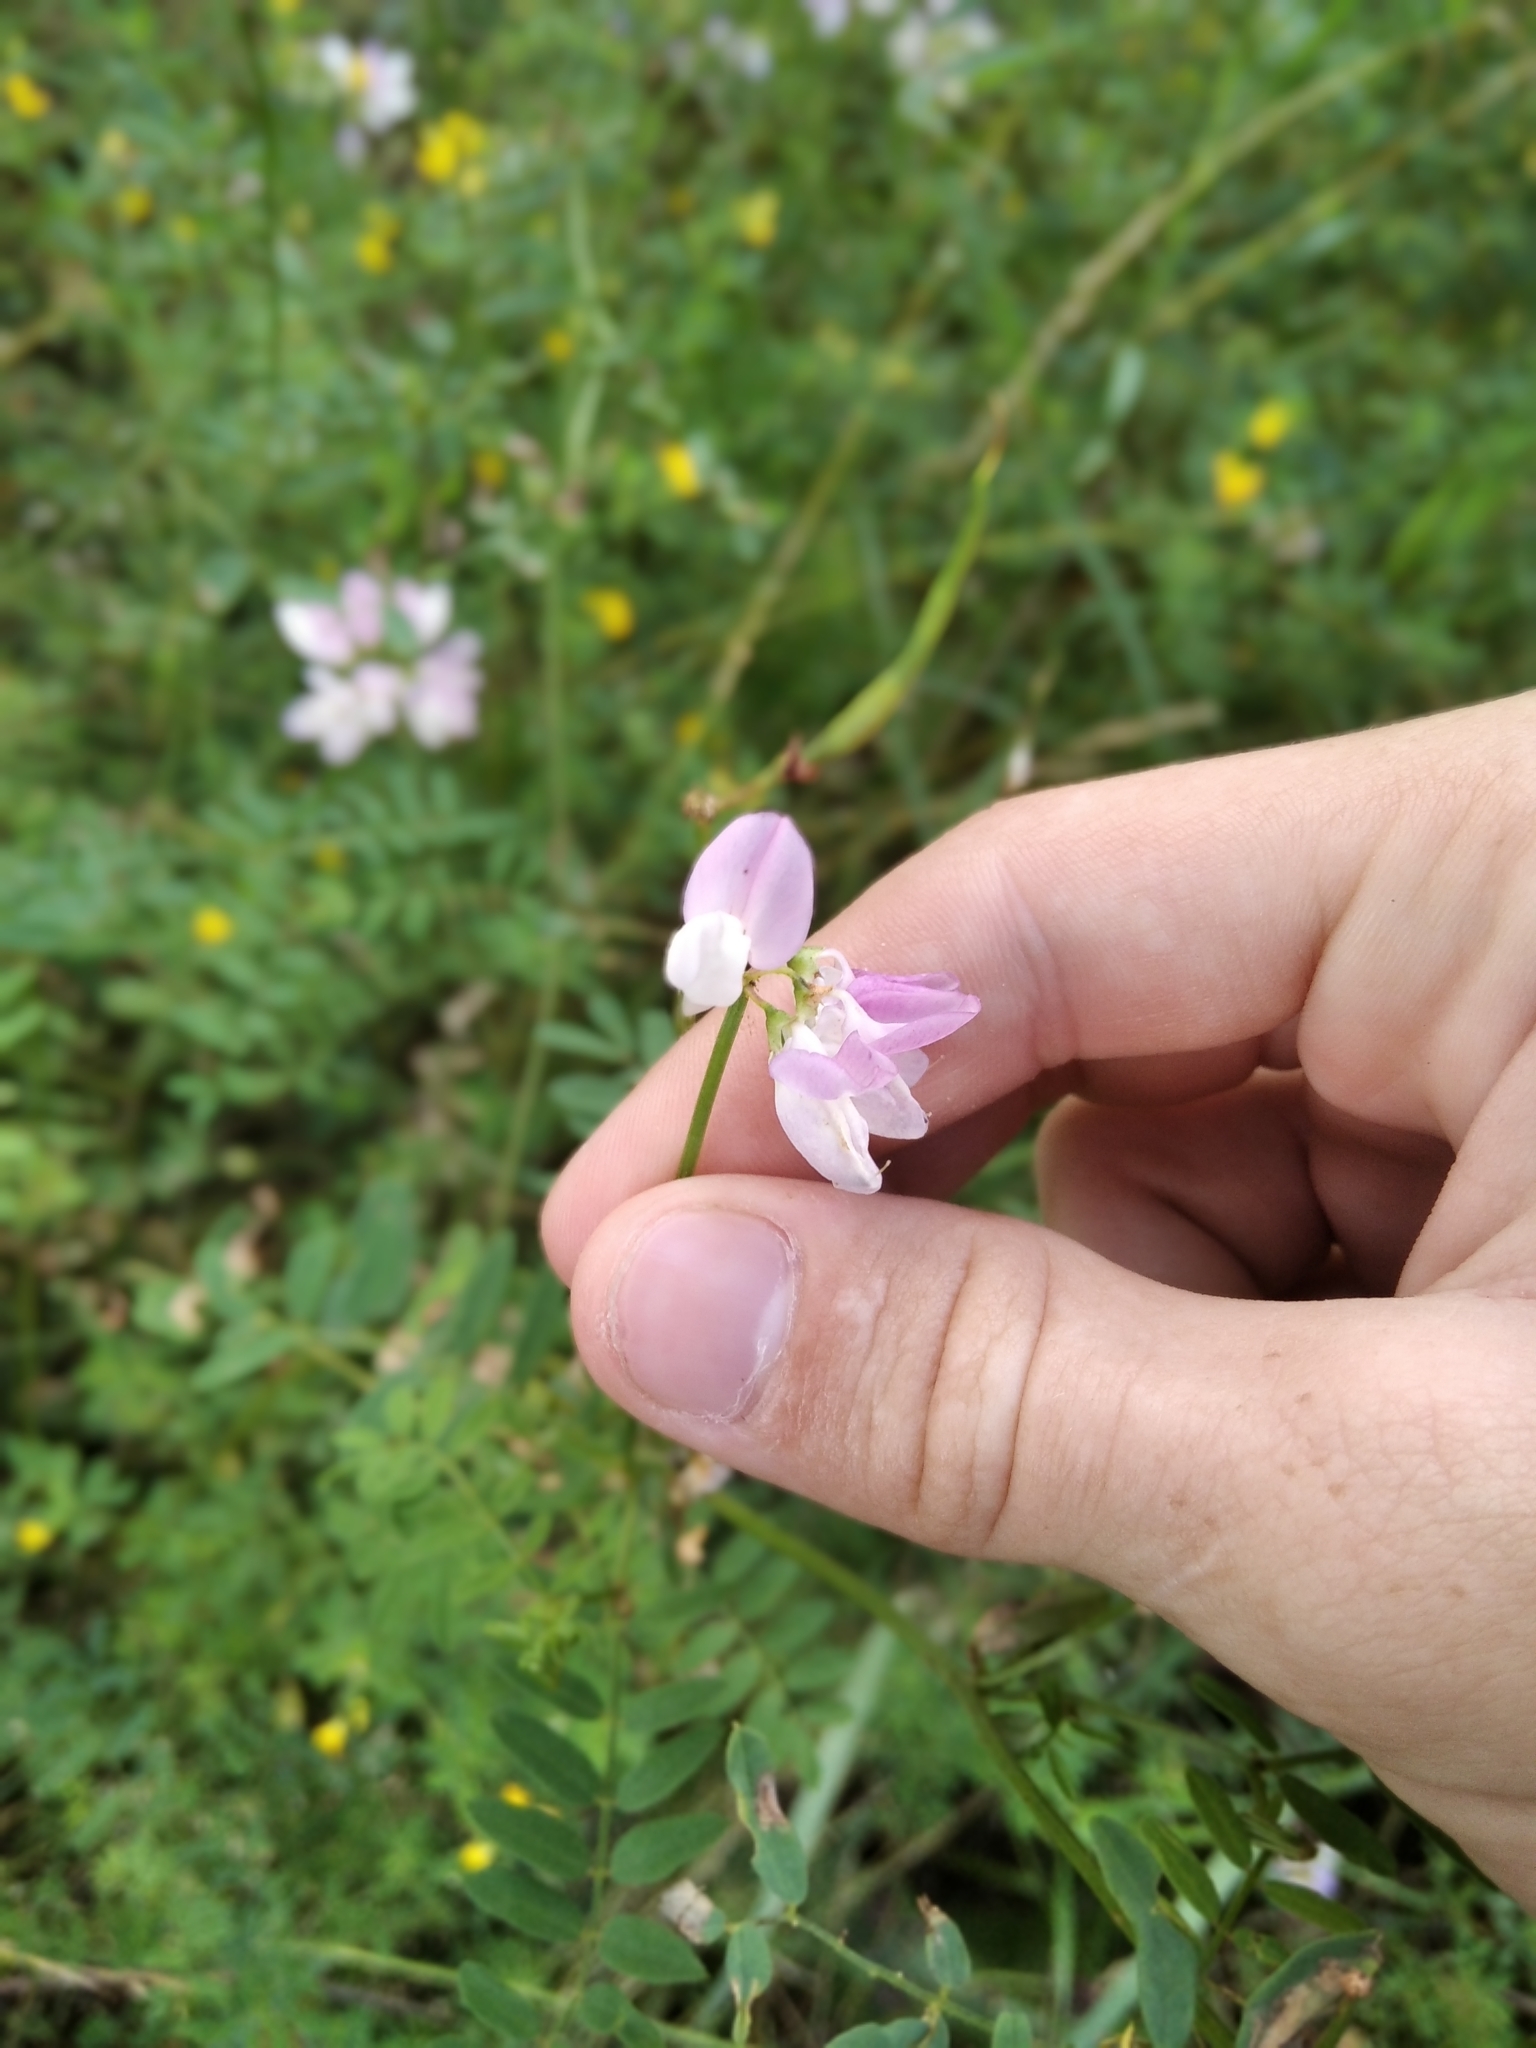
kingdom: Plantae
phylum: Tracheophyta
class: Magnoliopsida
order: Fabales
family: Fabaceae
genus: Coronilla
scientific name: Coronilla varia
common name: Crownvetch
